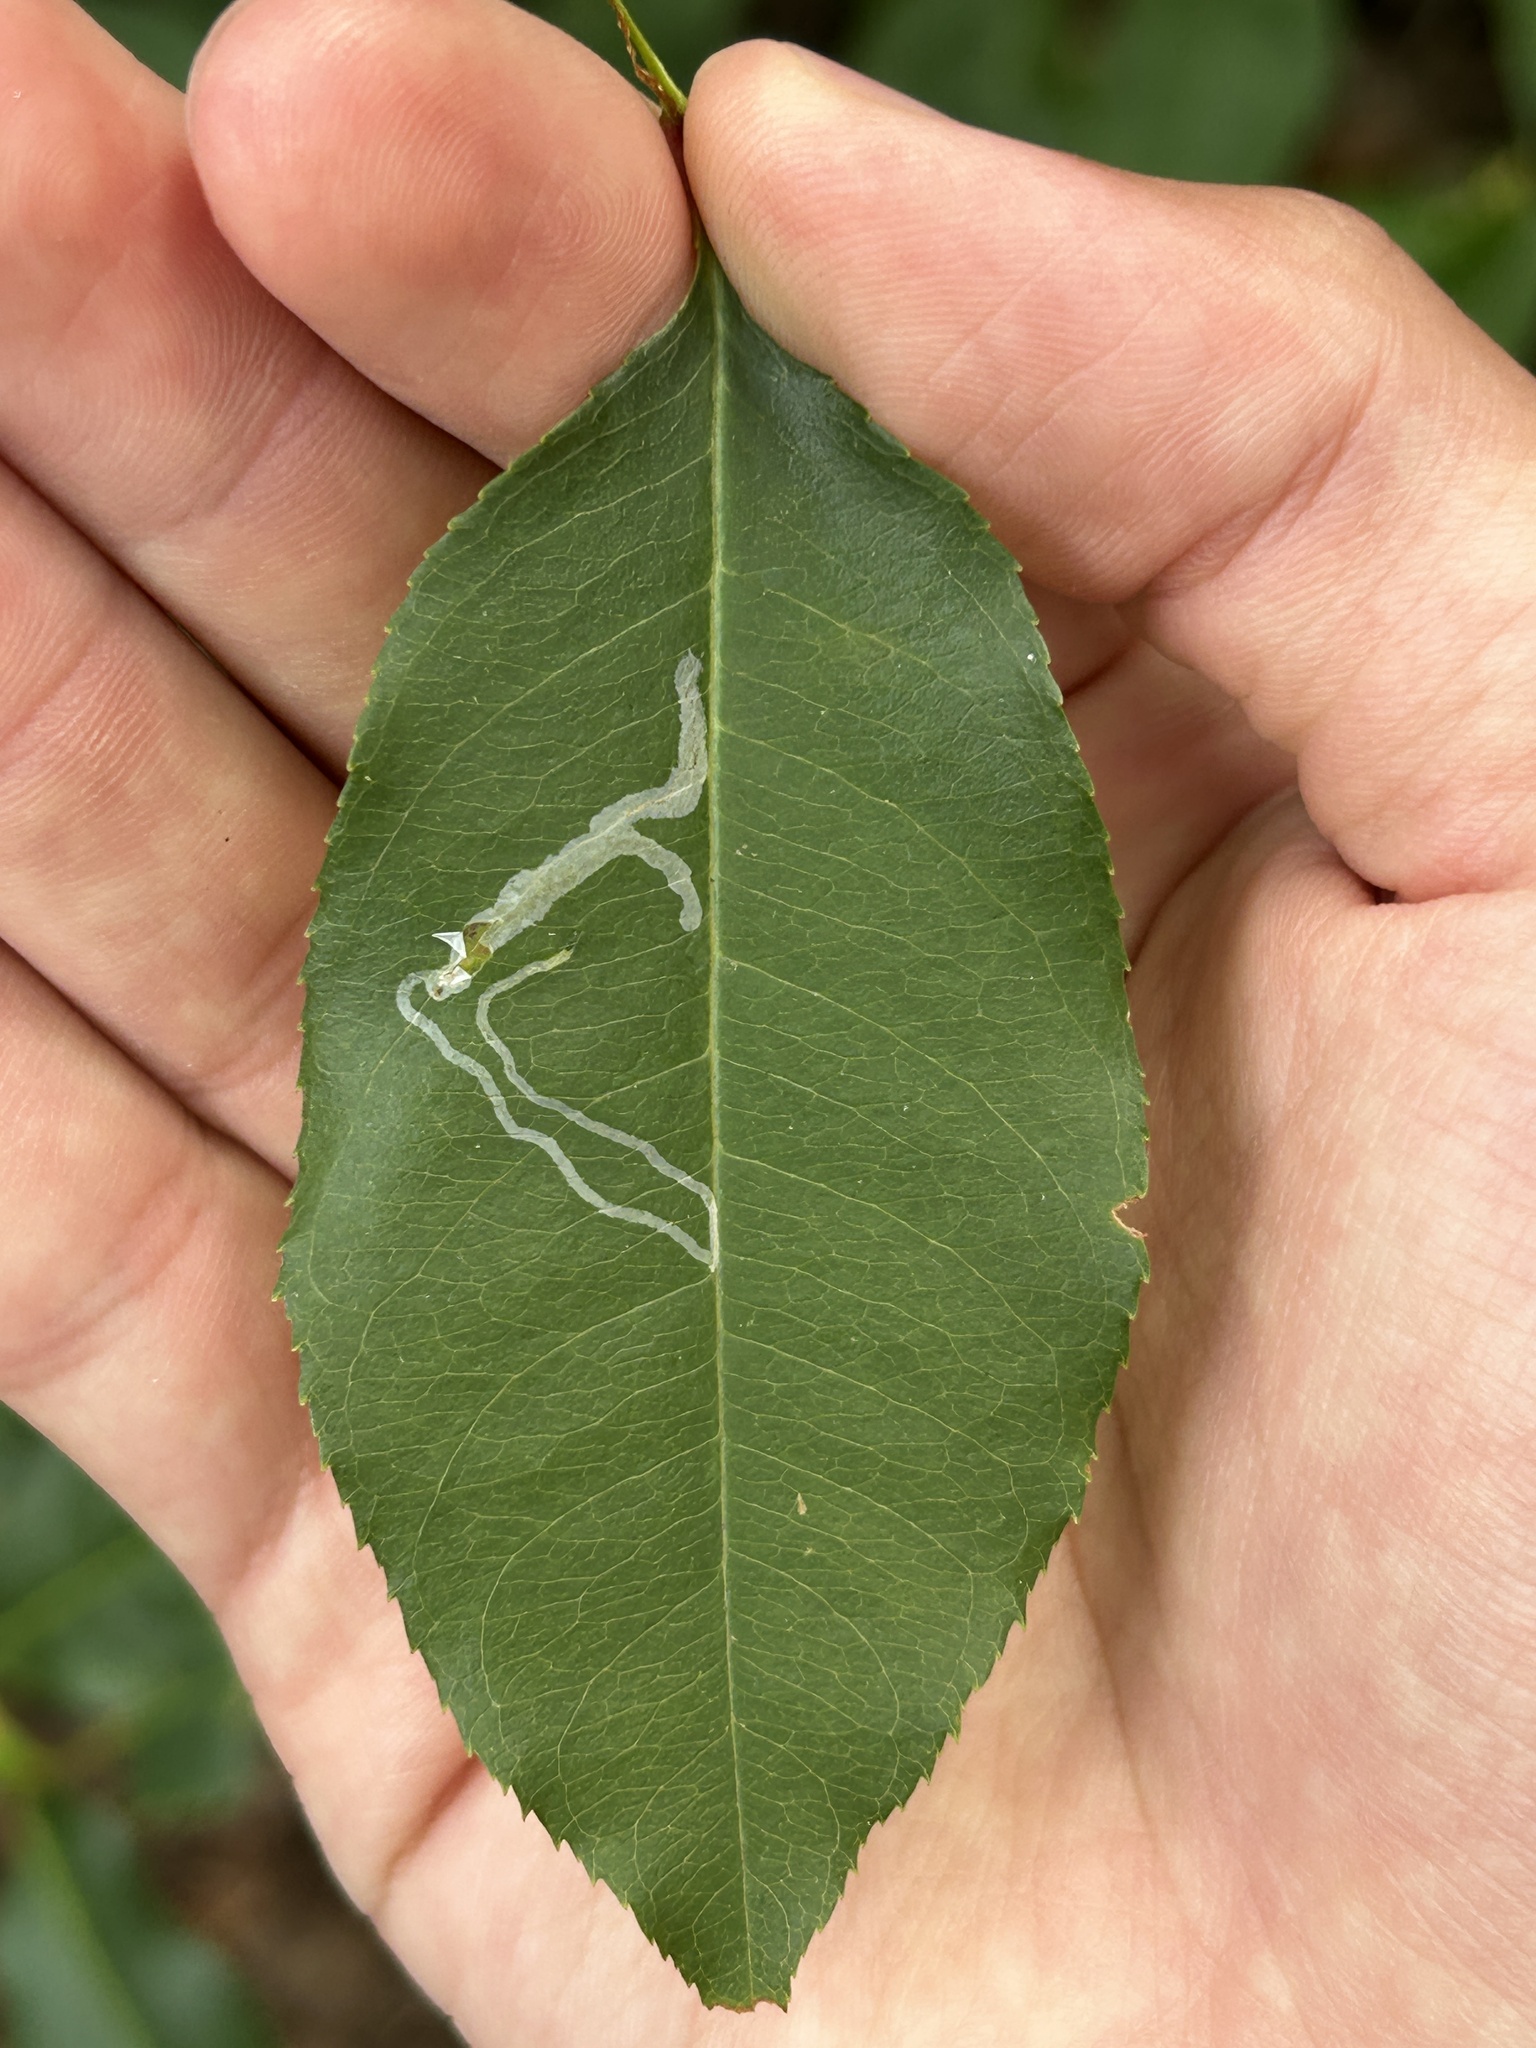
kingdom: Animalia
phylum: Arthropoda
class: Insecta
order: Lepidoptera
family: Gracillariidae
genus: Caloptilia
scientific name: Caloptilia serotinella
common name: Cherry leafroller moth
